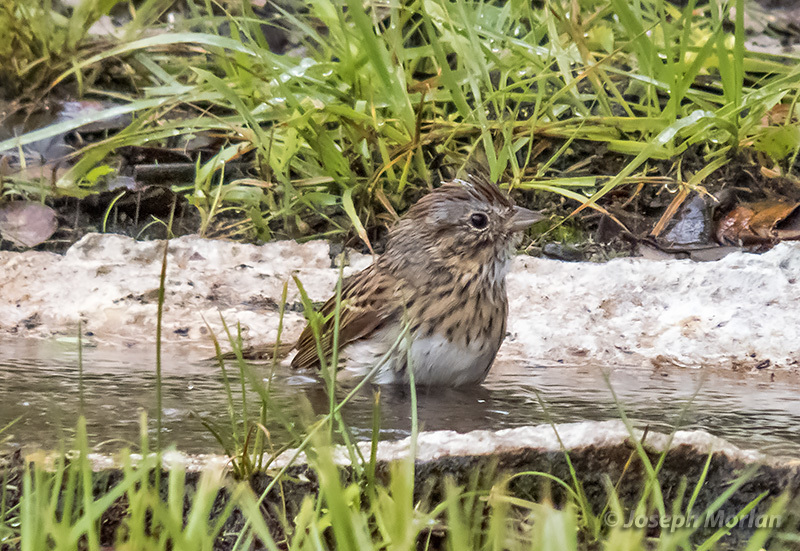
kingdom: Animalia
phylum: Chordata
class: Aves
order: Passeriformes
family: Passerellidae
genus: Melospiza
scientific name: Melospiza lincolnii
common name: Lincoln's sparrow
